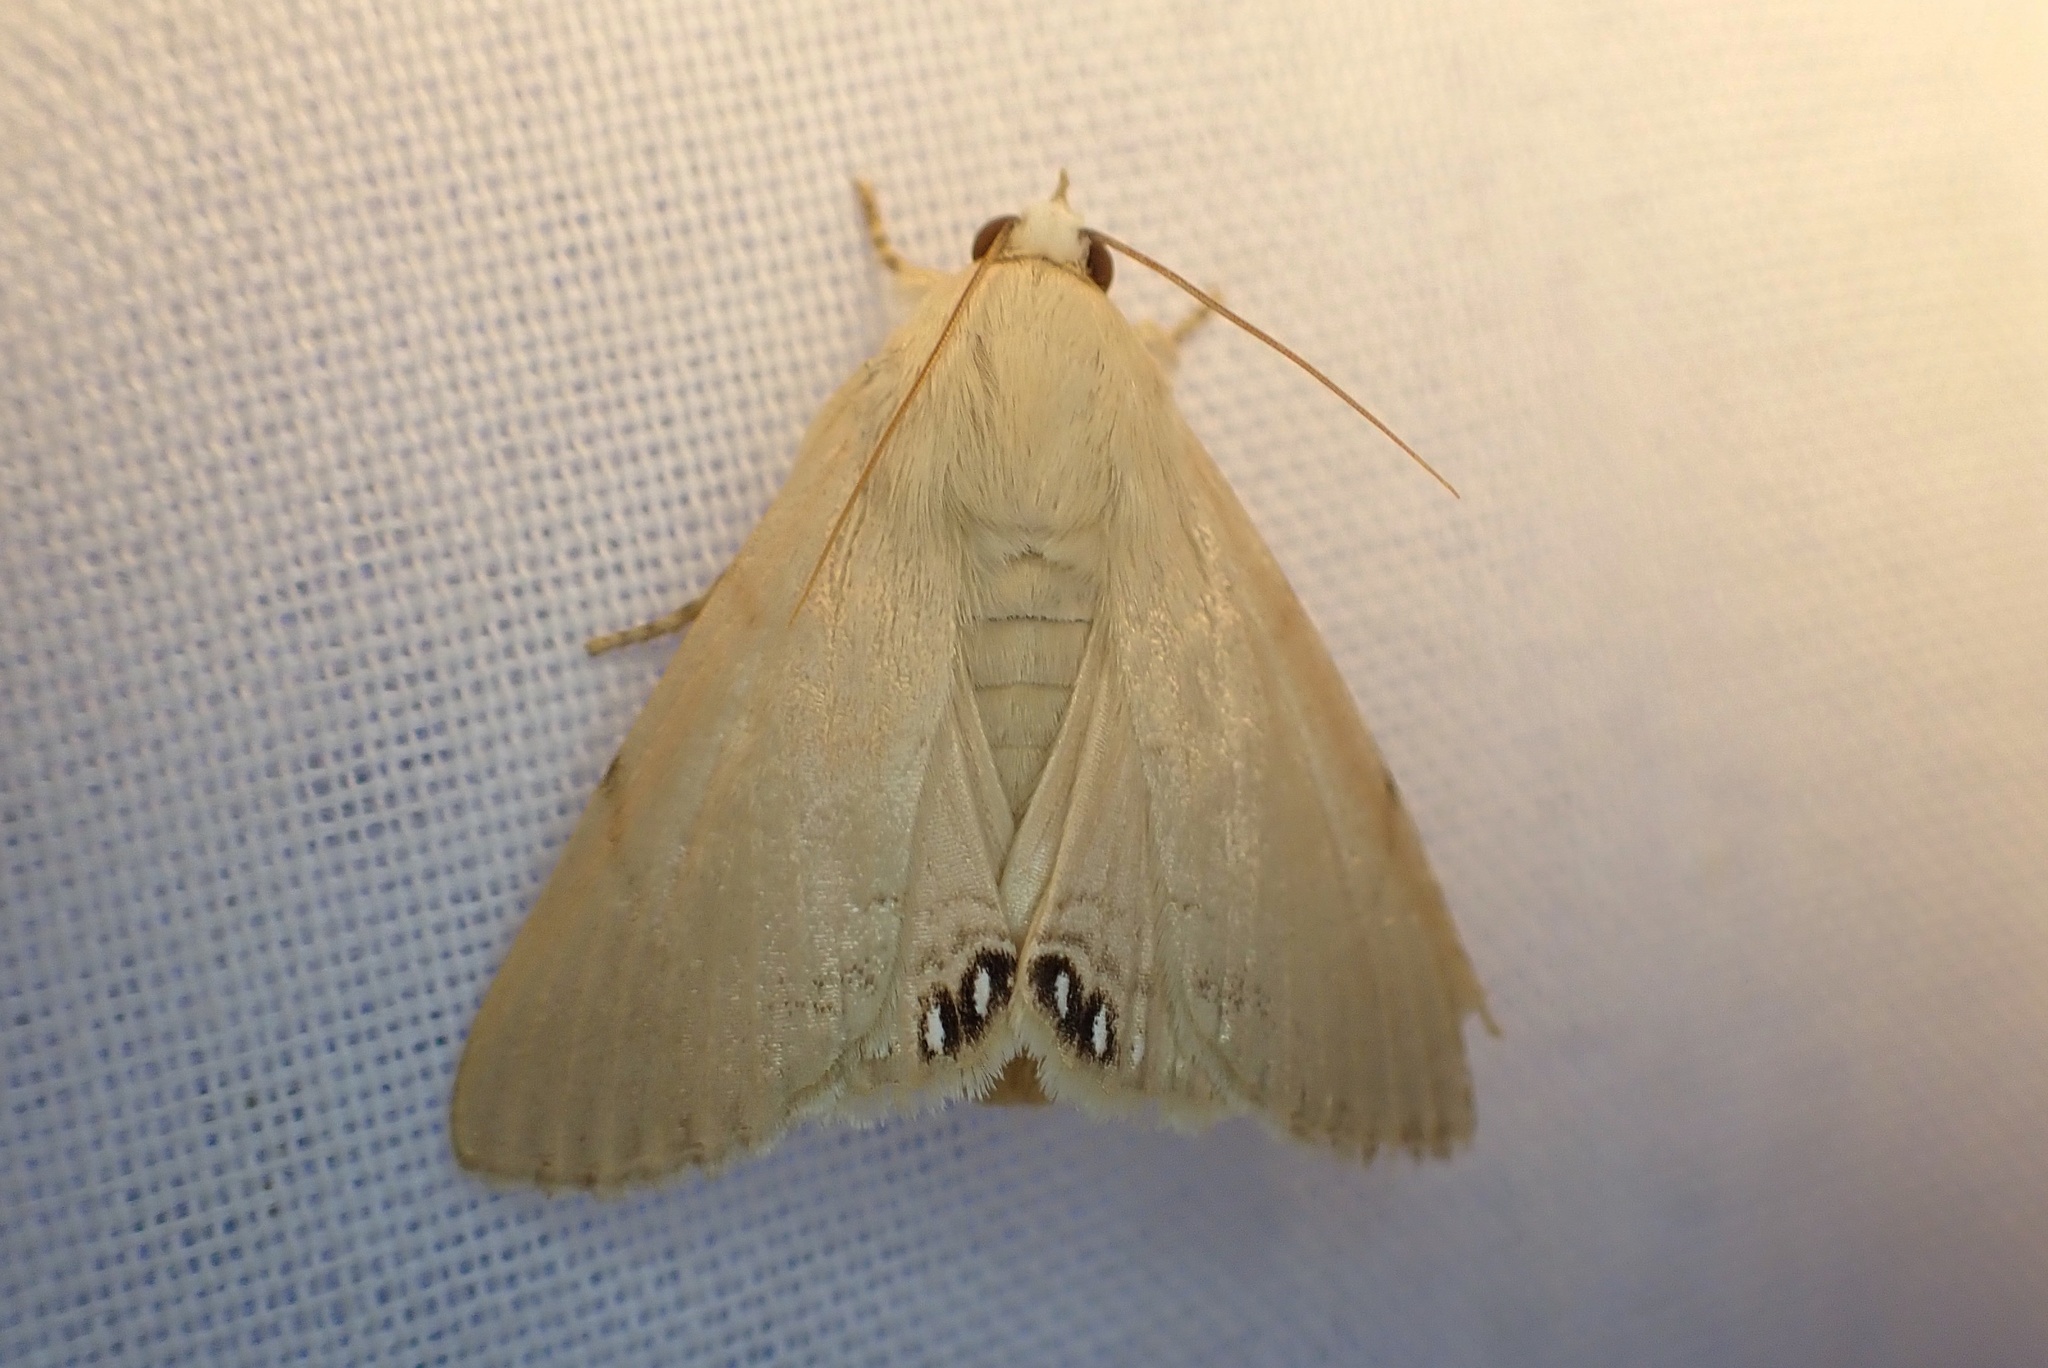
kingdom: Animalia
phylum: Arthropoda
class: Insecta
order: Lepidoptera
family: Erebidae
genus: Litoprosopus
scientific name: Litoprosopus coachella
